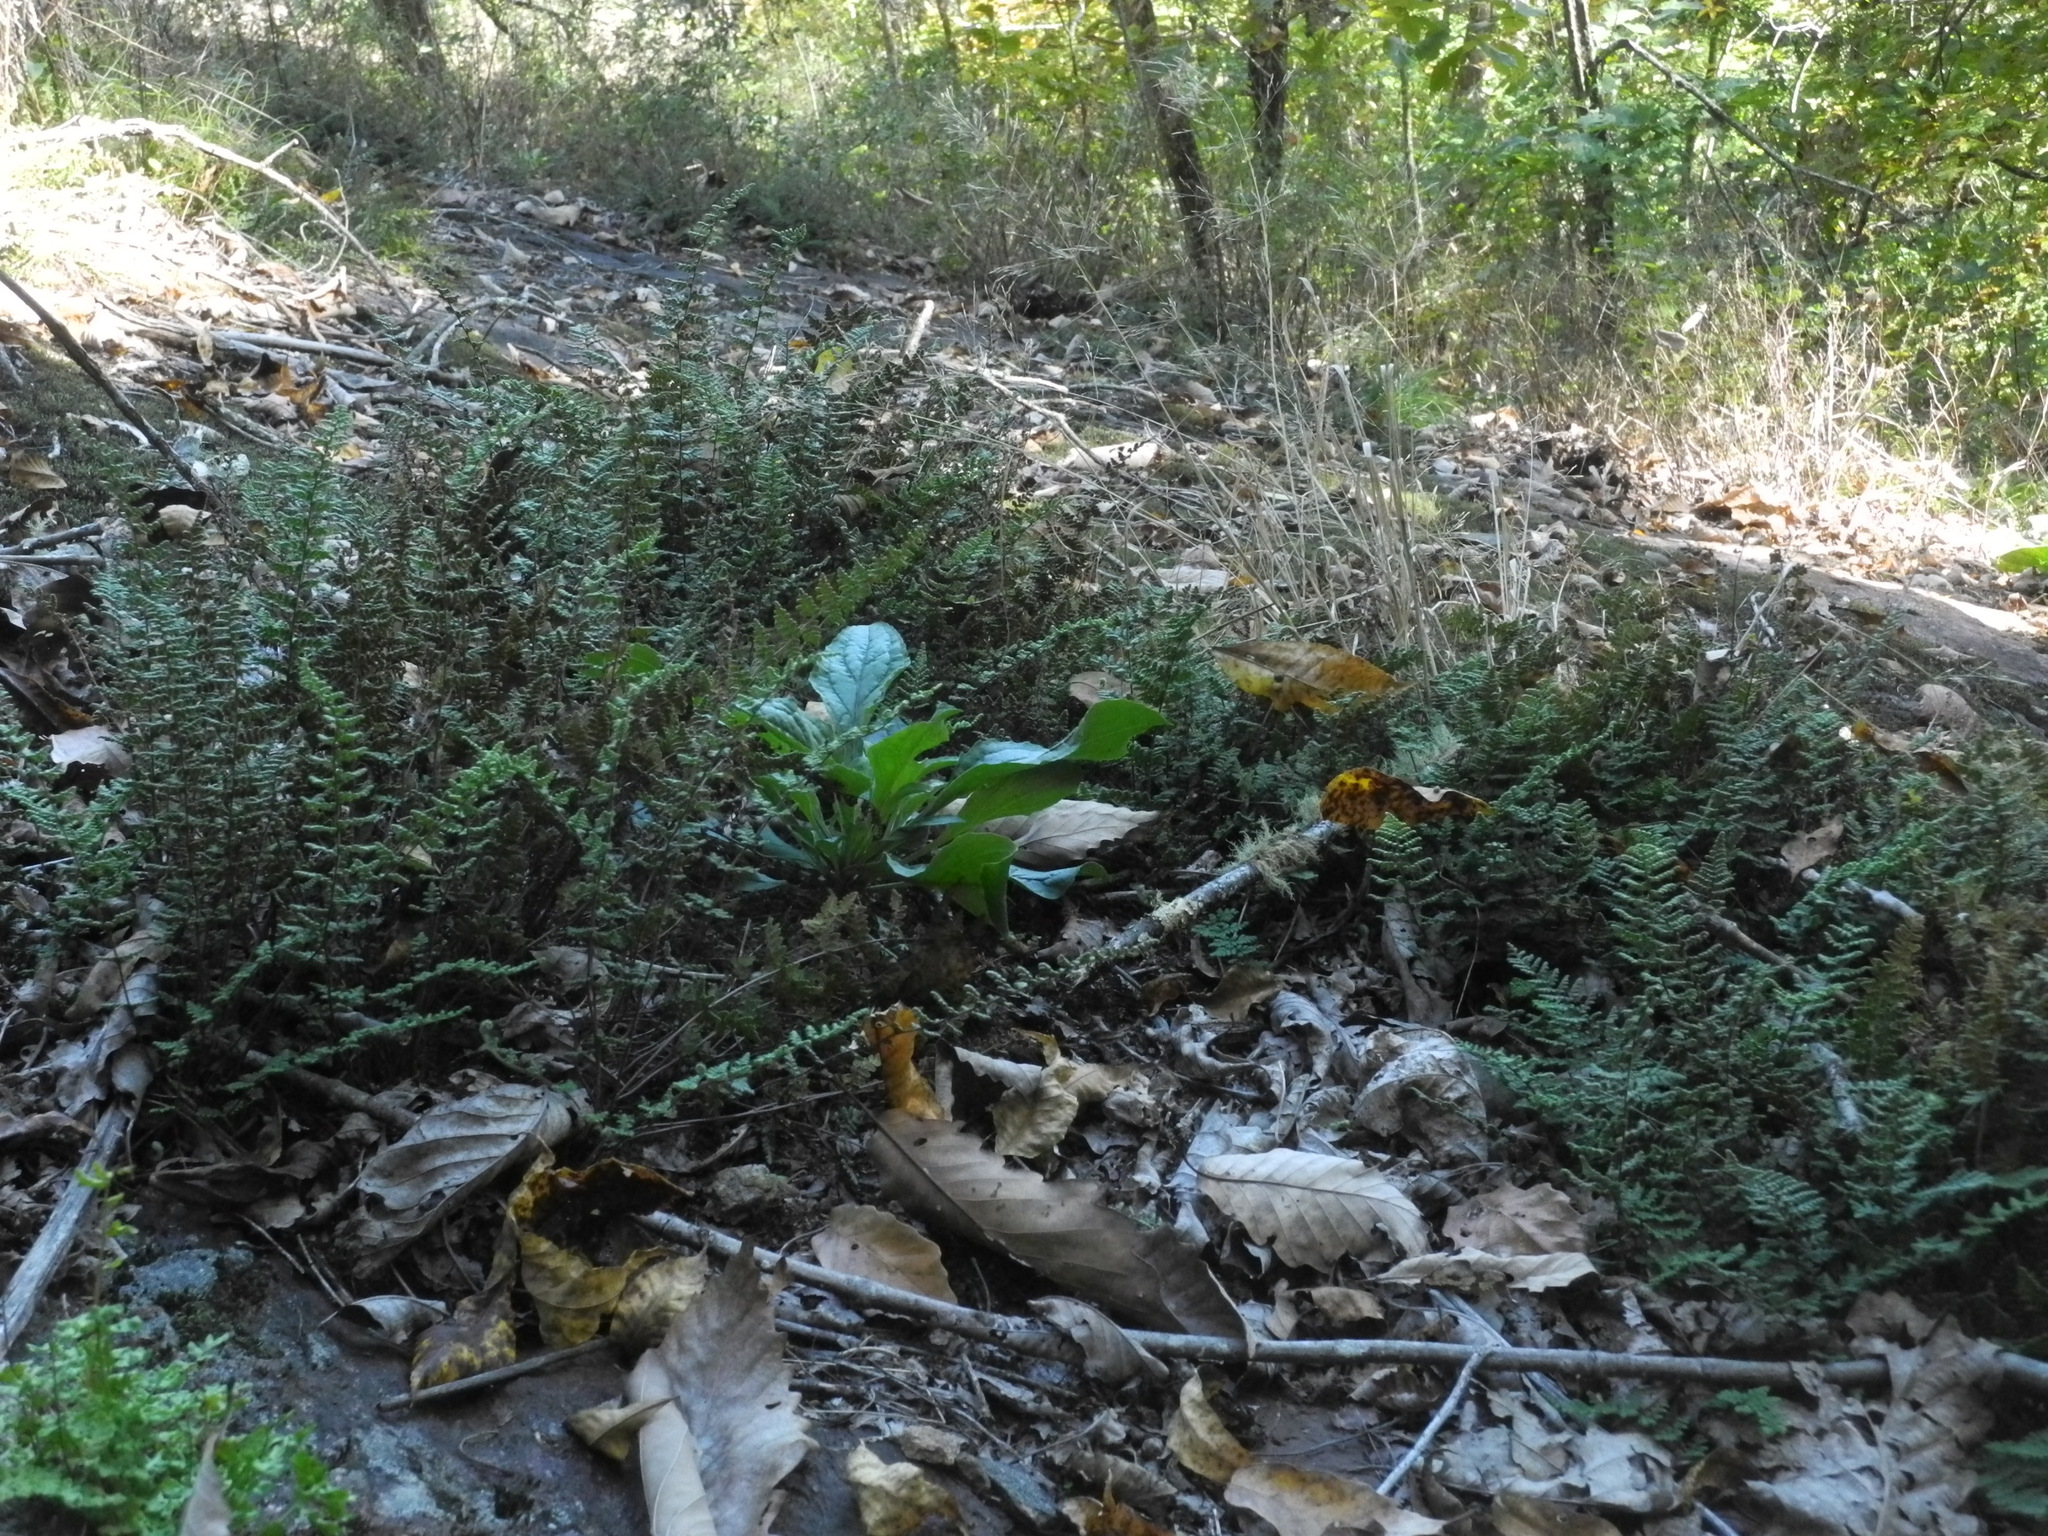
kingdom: Plantae
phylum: Tracheophyta
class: Polypodiopsida
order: Polypodiales
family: Pteridaceae
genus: Myriopteris
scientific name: Myriopteris lanosa
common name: Hairy lip fern
